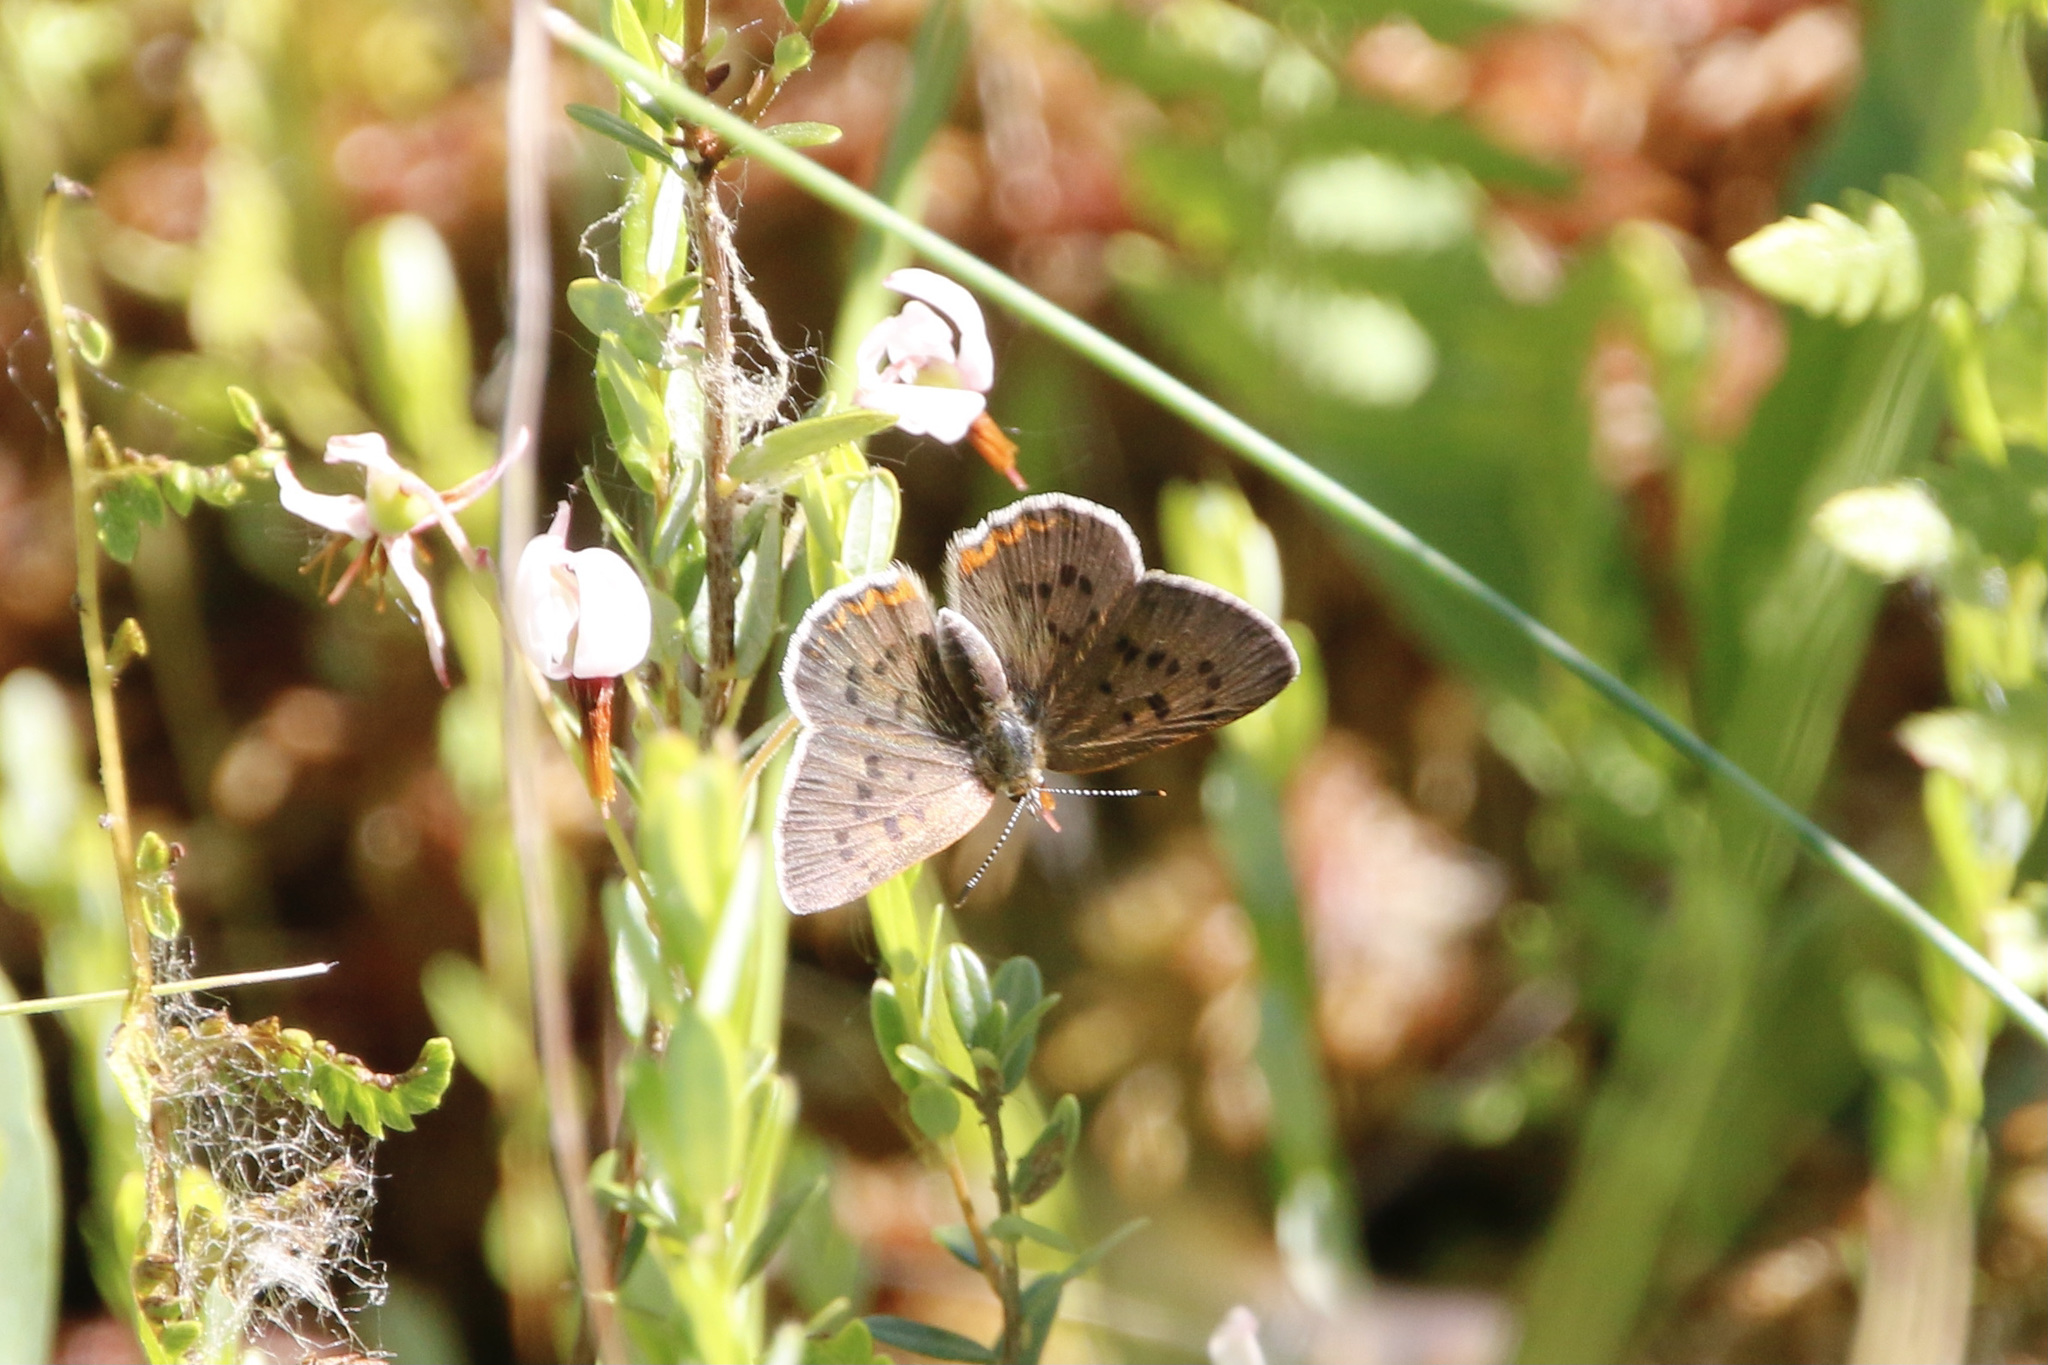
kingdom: Animalia
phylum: Arthropoda
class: Insecta
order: Lepidoptera
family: Lycaenidae
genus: Tharsalea
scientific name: Tharsalea epixanthe
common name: Bog copper
